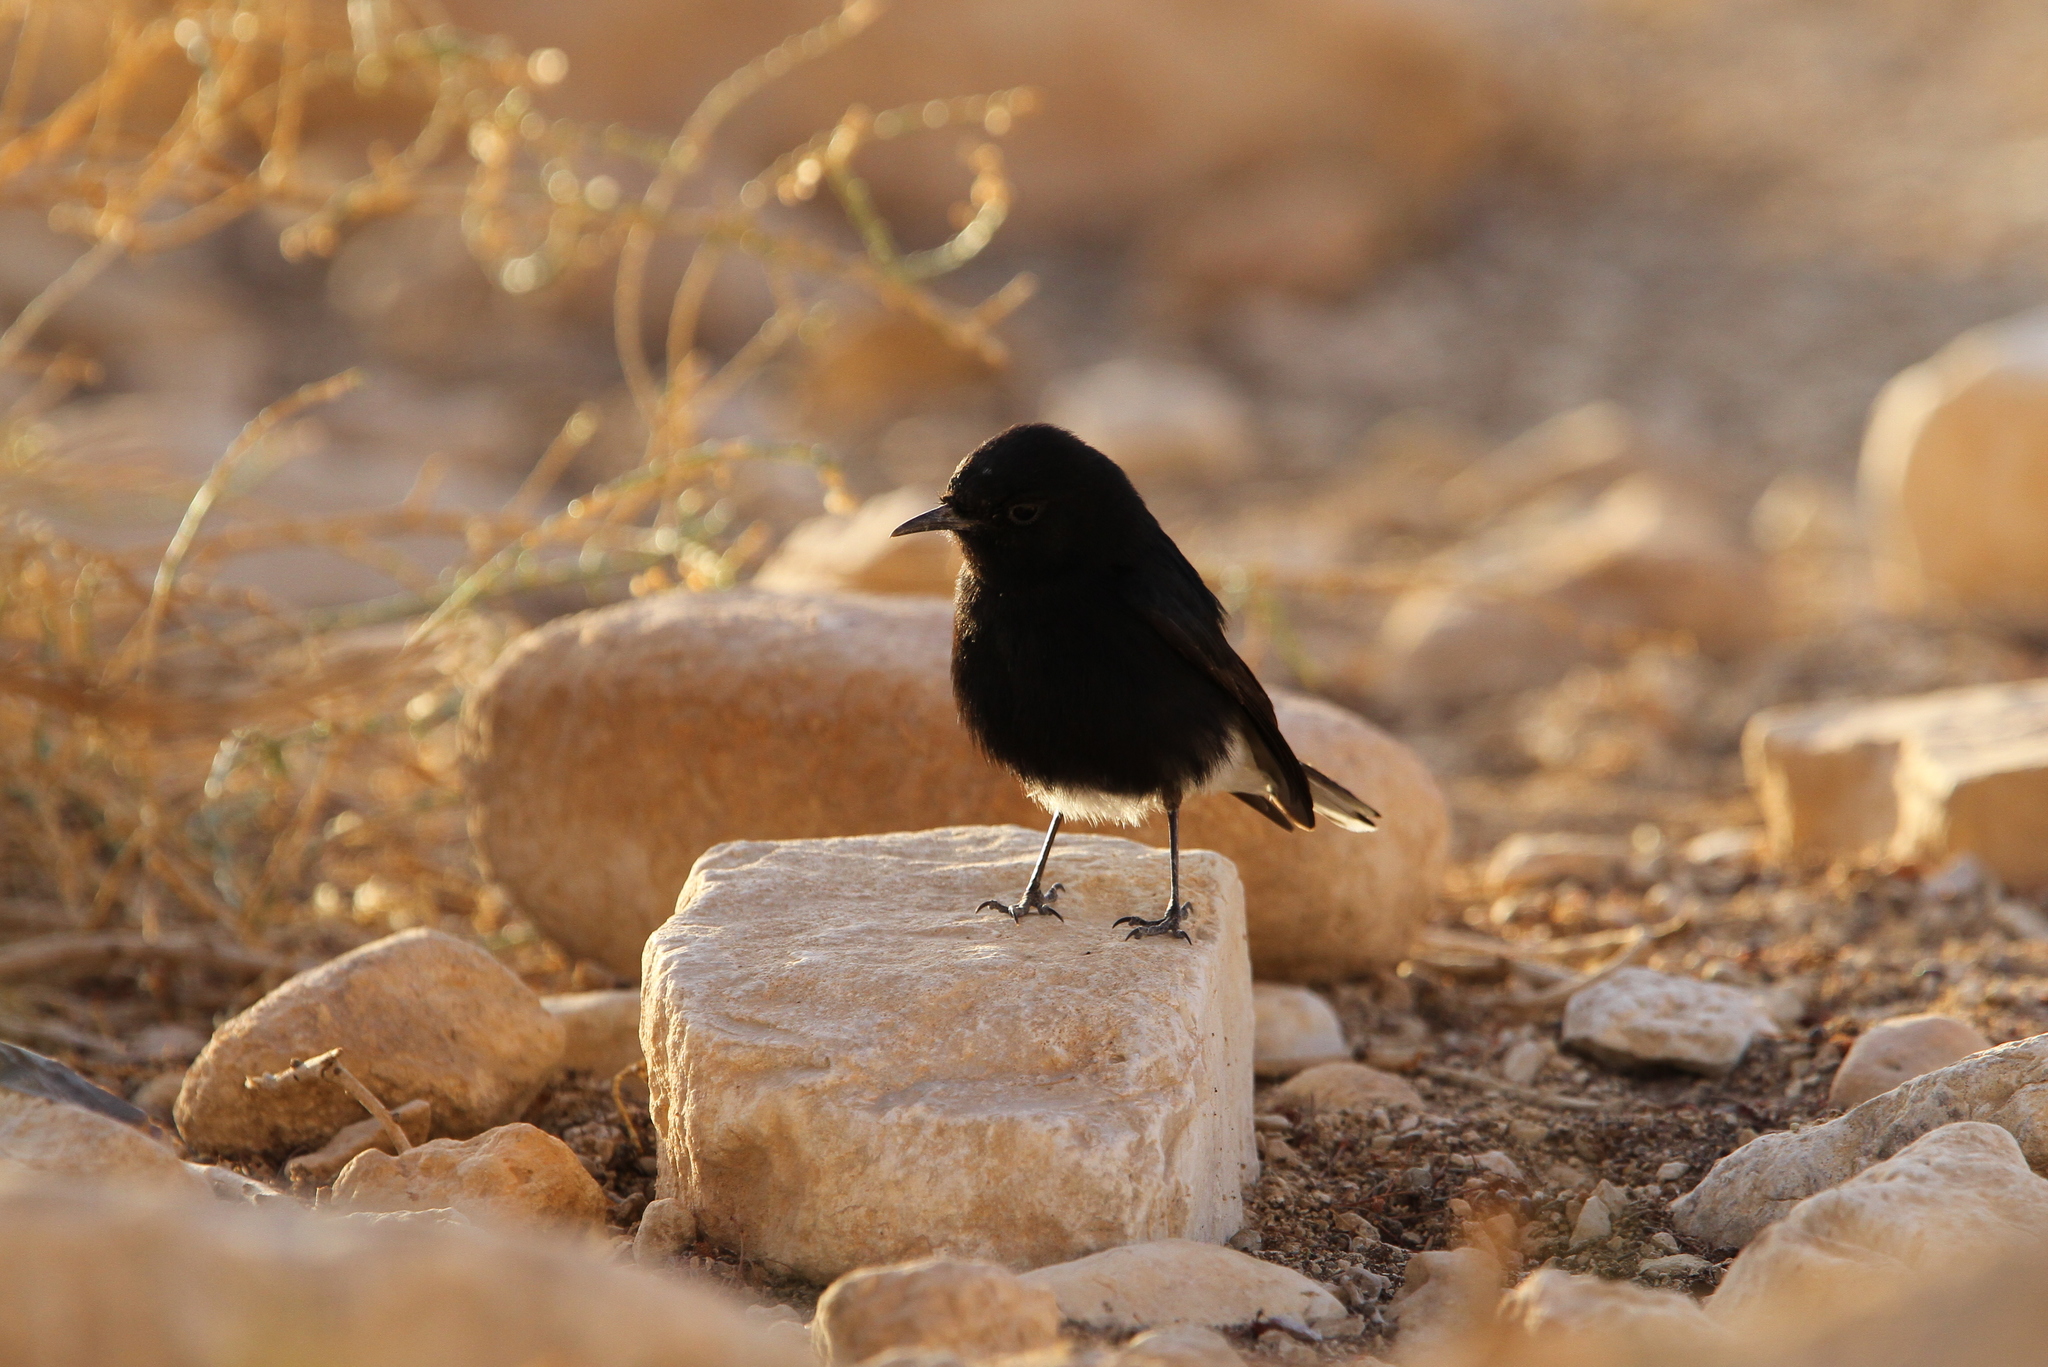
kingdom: Animalia
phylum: Chordata
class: Aves
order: Passeriformes
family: Muscicapidae
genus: Oenanthe
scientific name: Oenanthe leucopyga
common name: White-crowned wheatear
